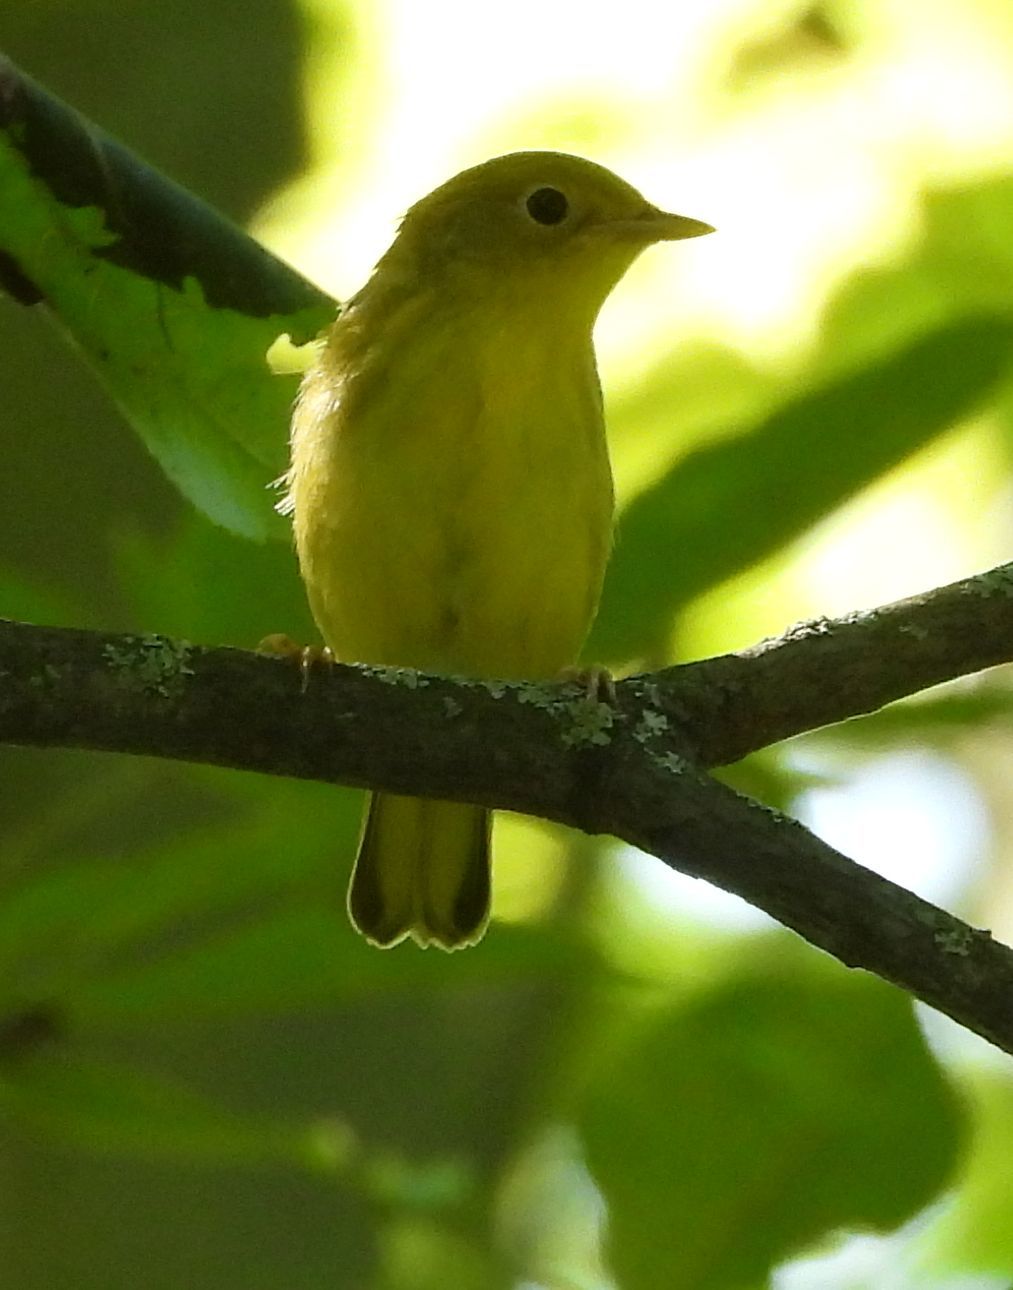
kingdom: Animalia
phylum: Chordata
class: Aves
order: Passeriformes
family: Parulidae
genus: Setophaga
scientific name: Setophaga petechia
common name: Yellow warbler
